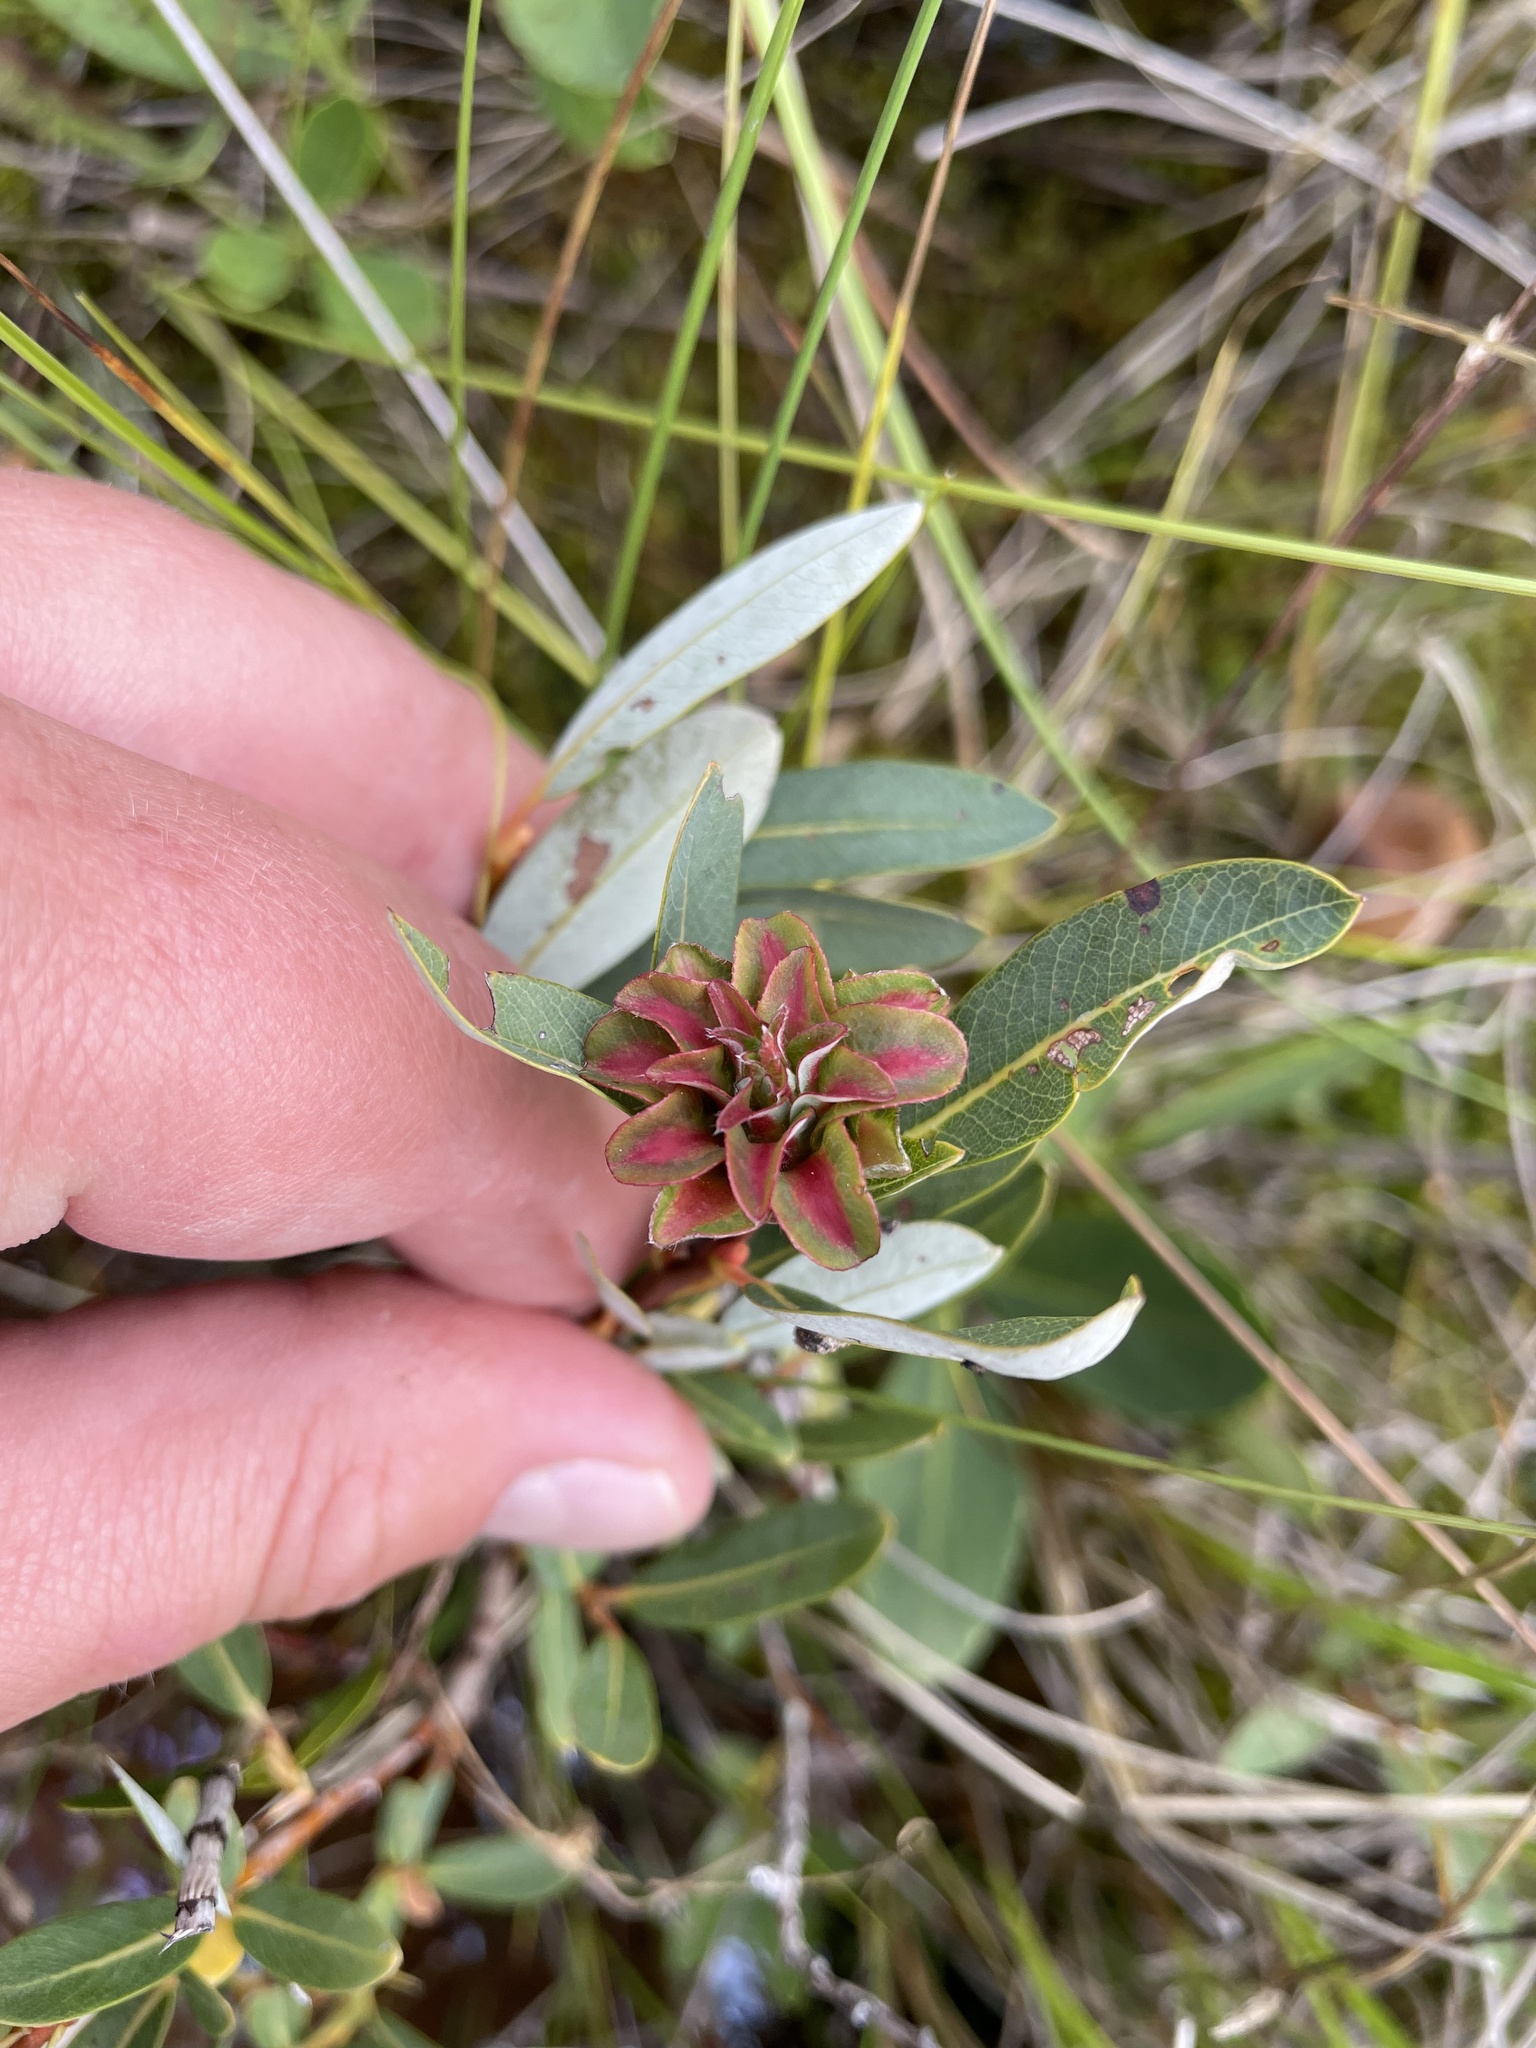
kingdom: Plantae
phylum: Tracheophyta
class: Magnoliopsida
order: Malpighiales
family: Salicaceae
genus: Salix
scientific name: Salix pedicellaris
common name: Bog willow
